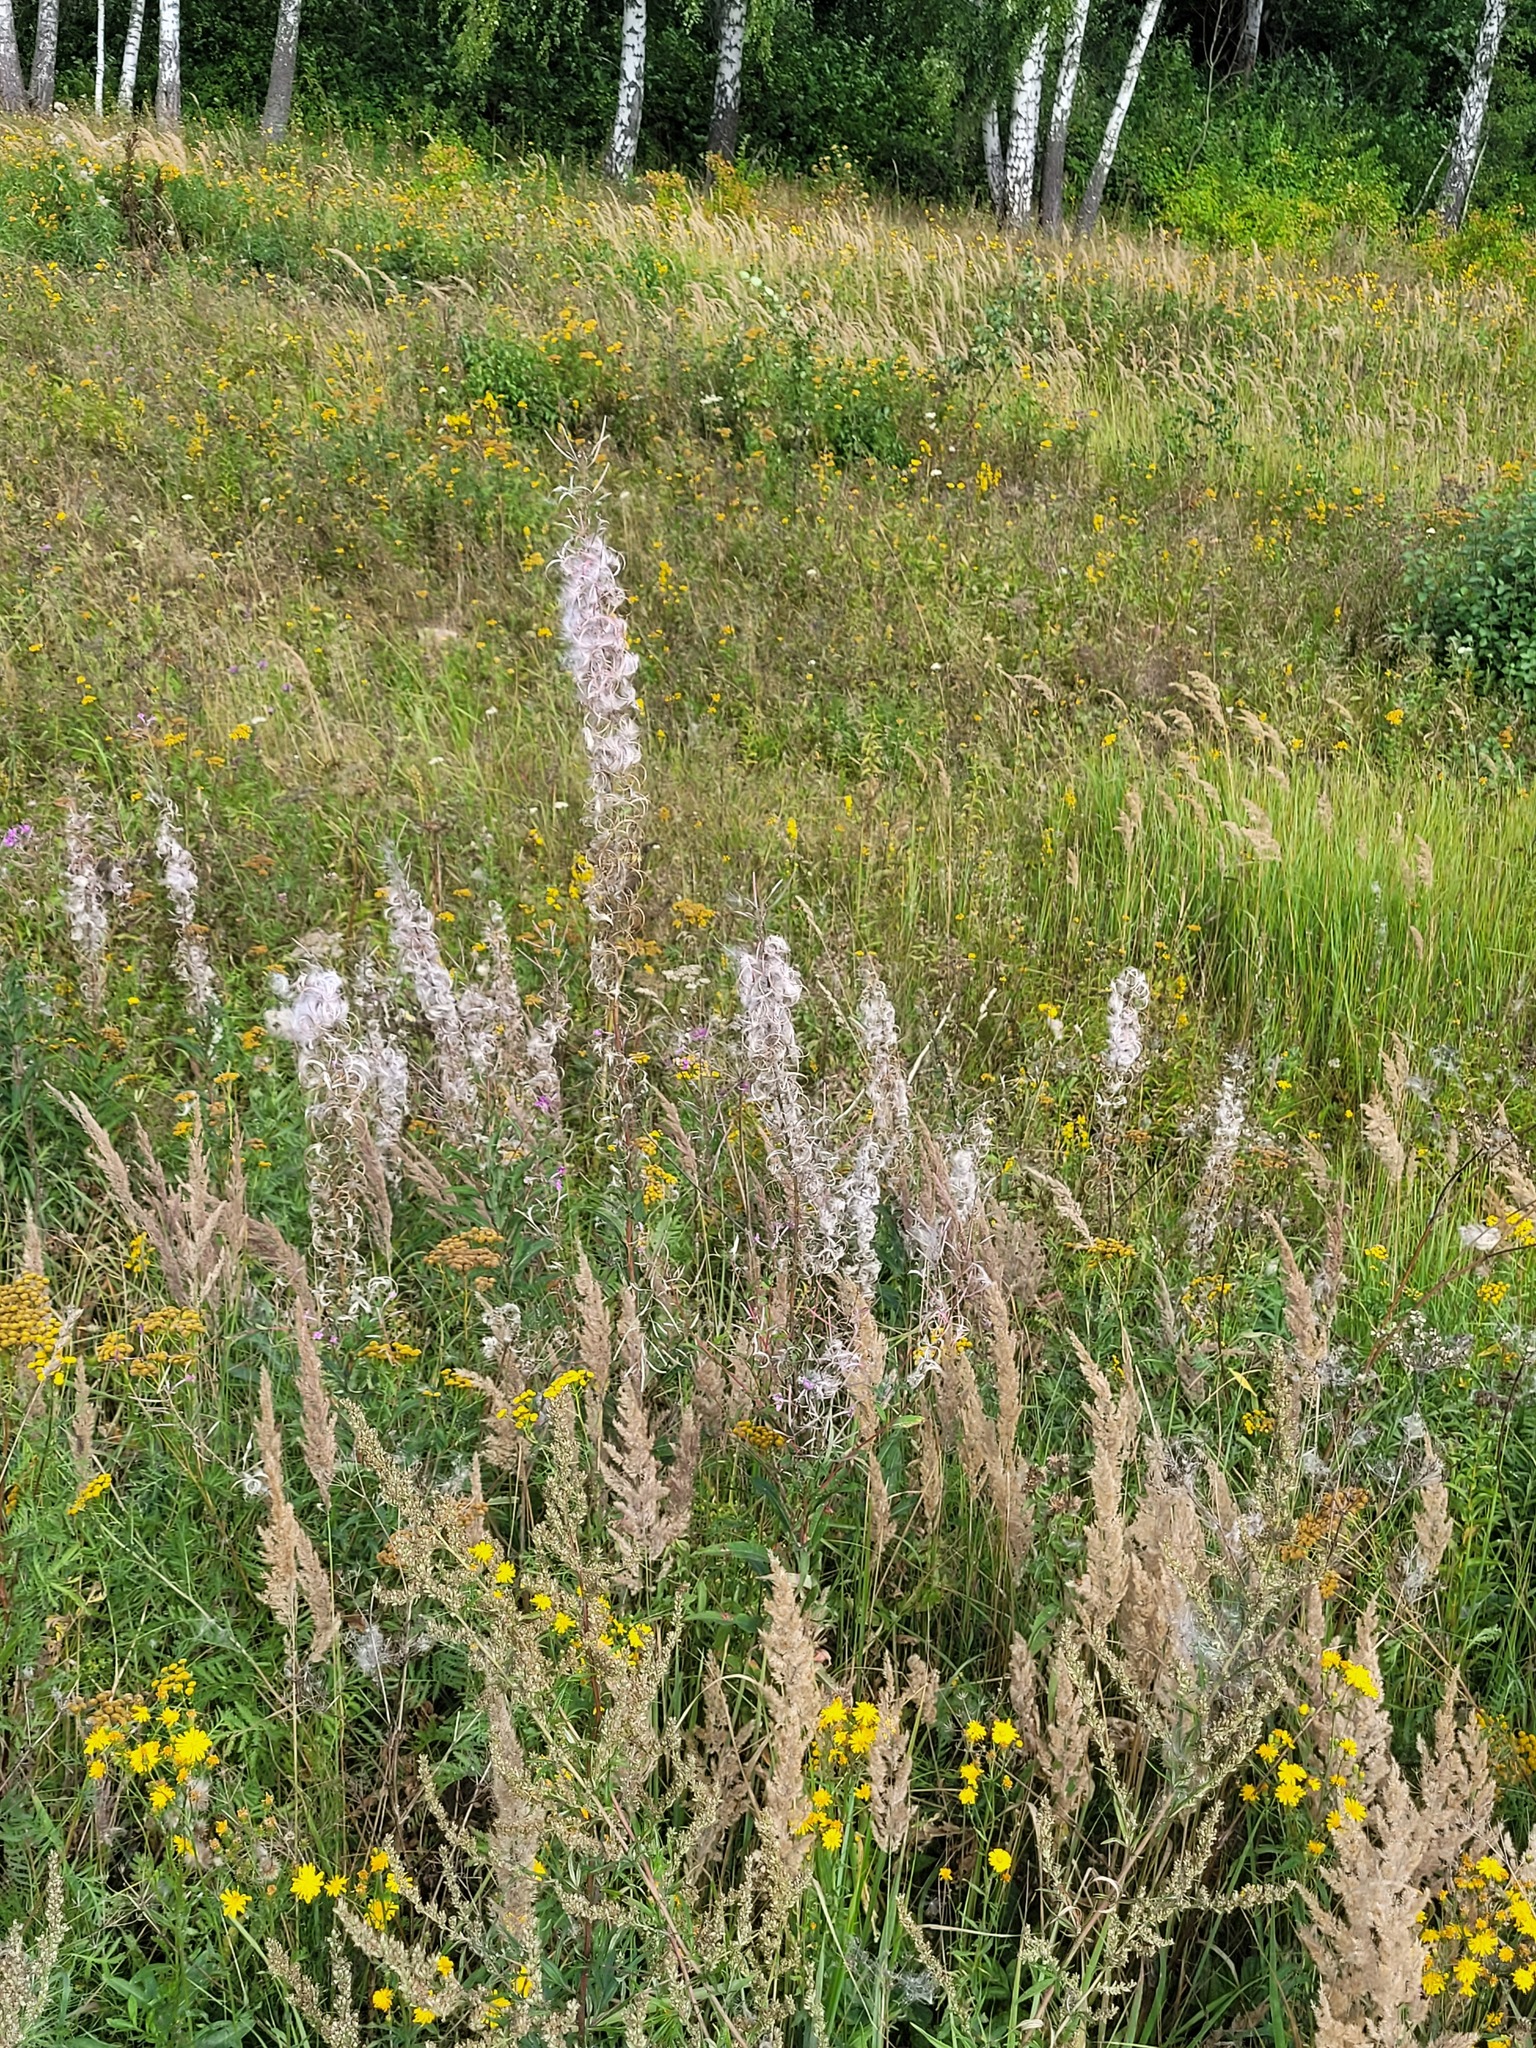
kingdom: Plantae
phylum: Tracheophyta
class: Magnoliopsida
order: Myrtales
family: Onagraceae
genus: Chamaenerion
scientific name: Chamaenerion angustifolium
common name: Fireweed
